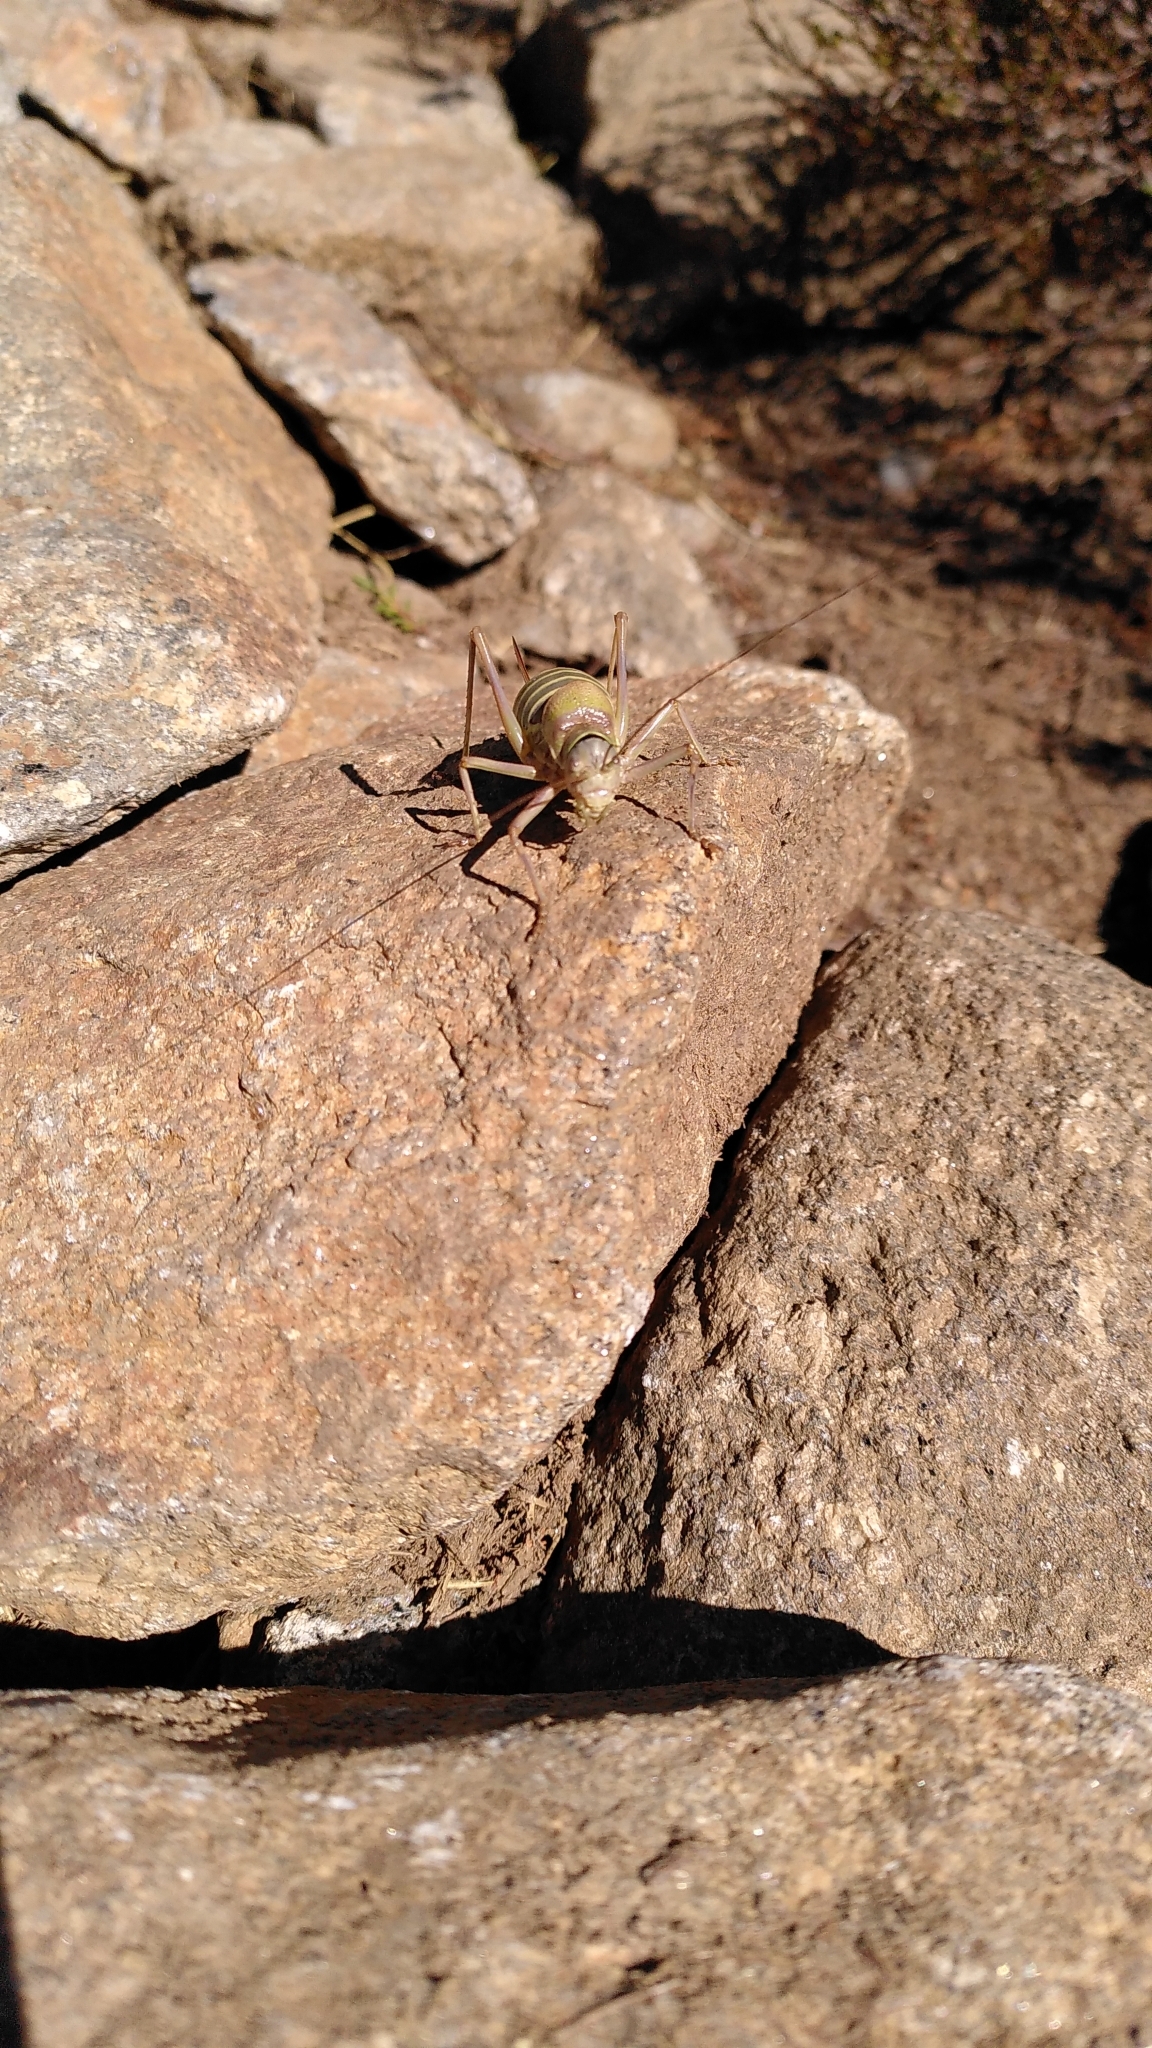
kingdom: Animalia
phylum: Arthropoda
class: Insecta
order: Orthoptera
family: Tettigoniidae
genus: Ephippiger
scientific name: Ephippiger diurnus
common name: Western saddle bush-cricket
